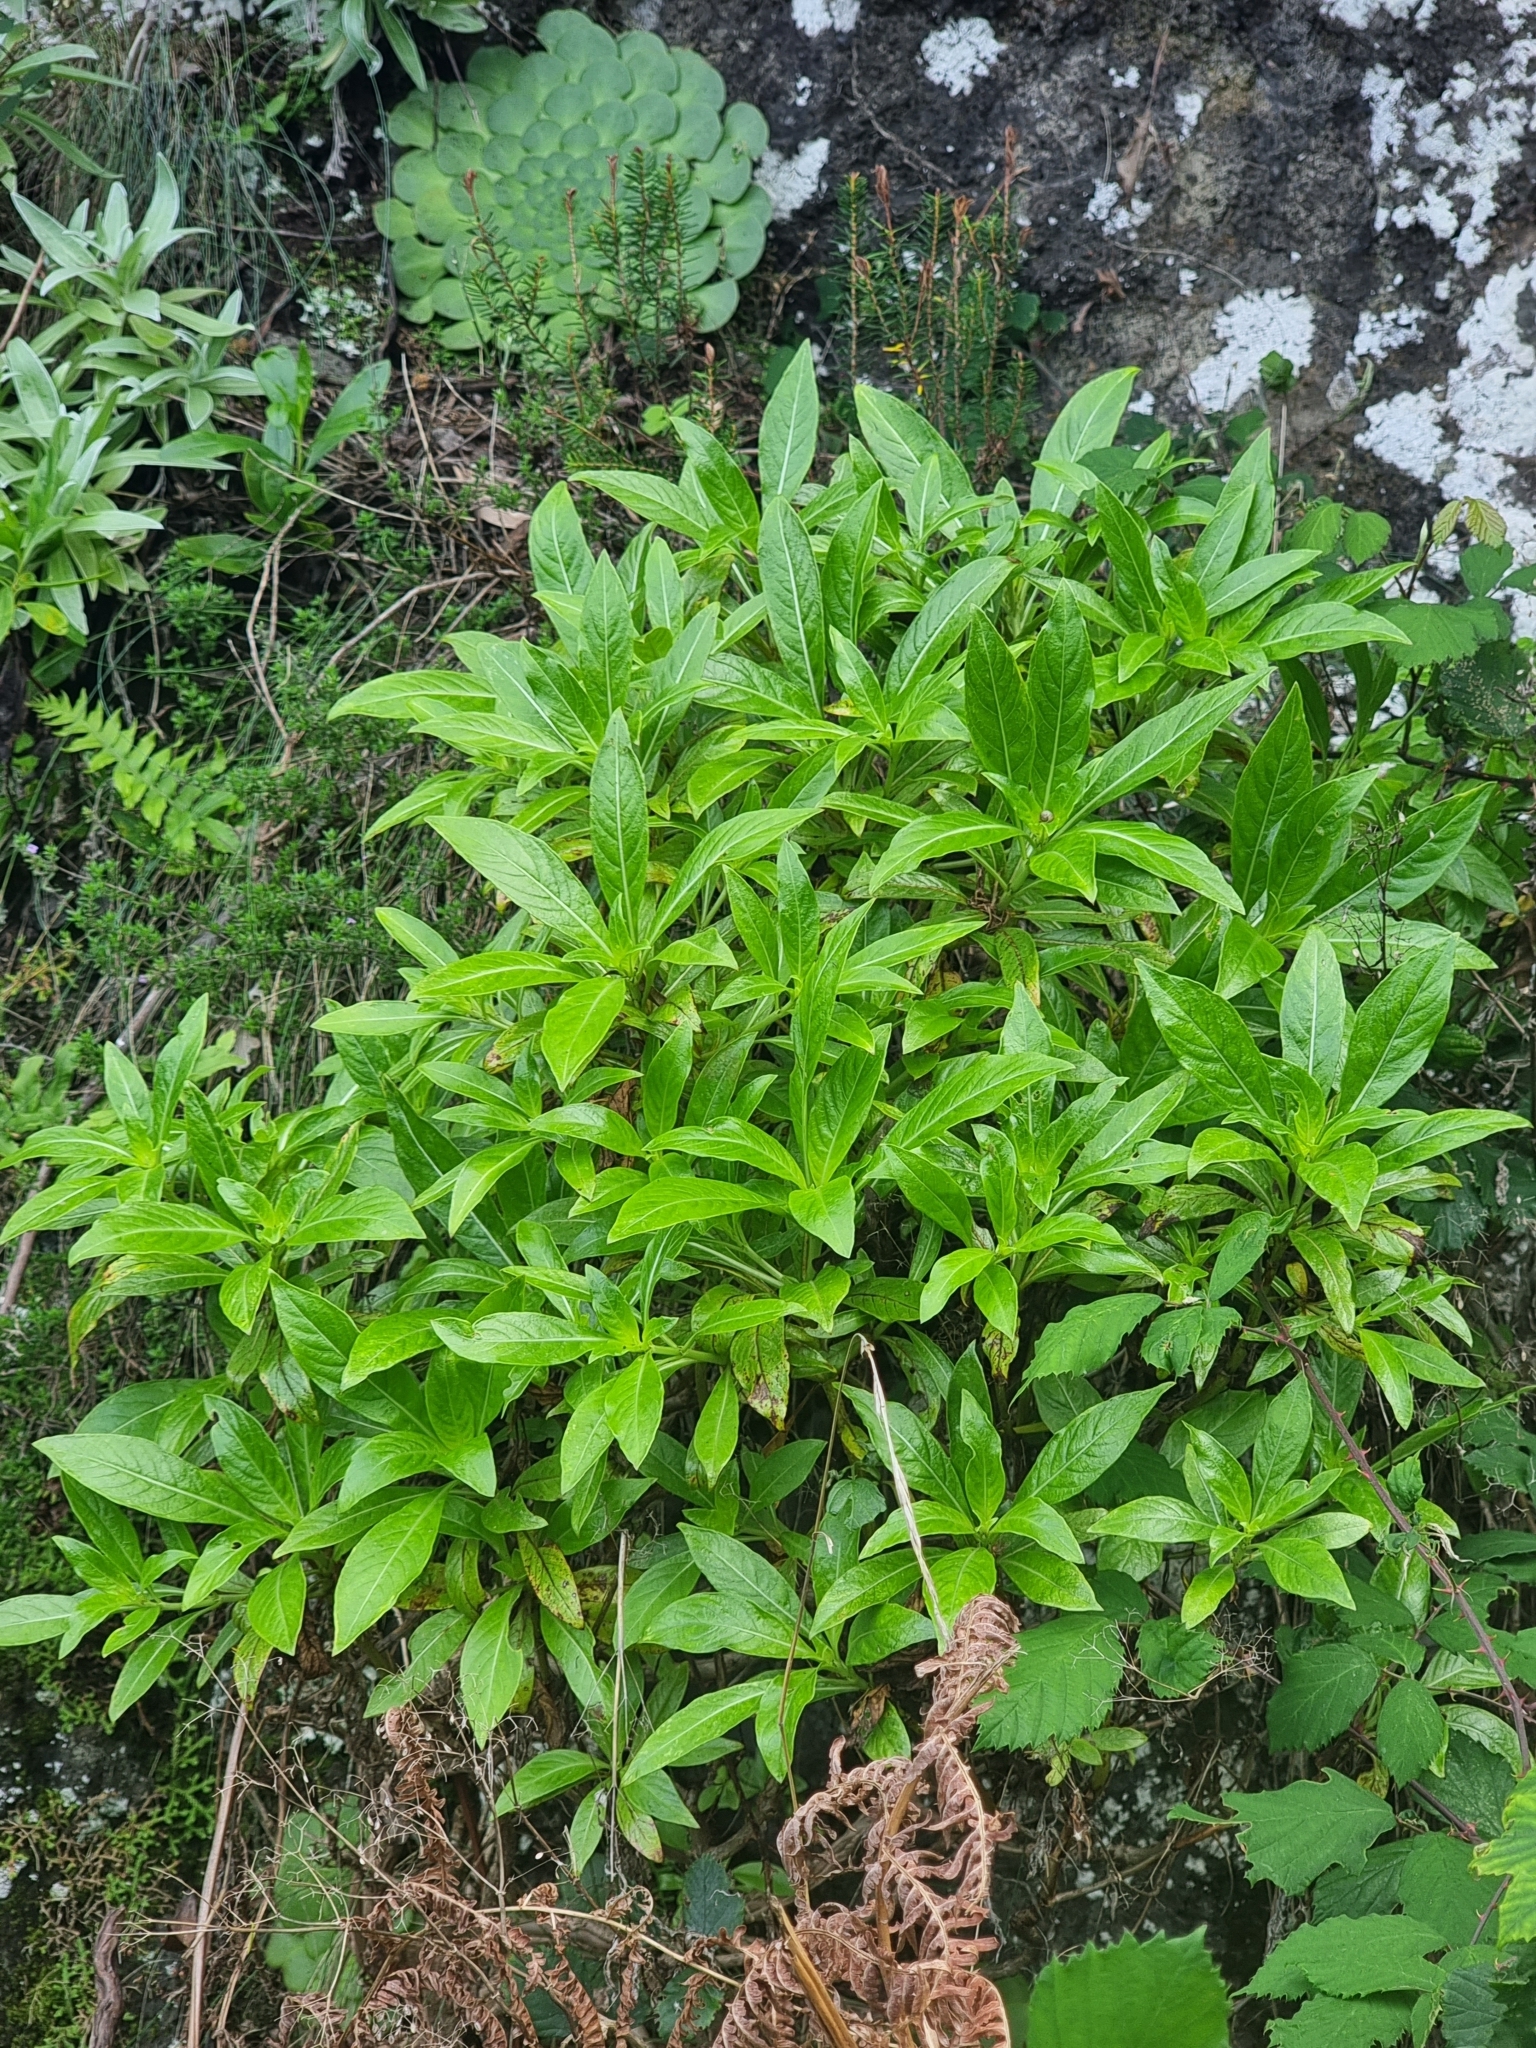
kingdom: Plantae
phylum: Tracheophyta
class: Magnoliopsida
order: Gentianales
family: Rubiaceae
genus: Phyllis
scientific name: Phyllis nobla
